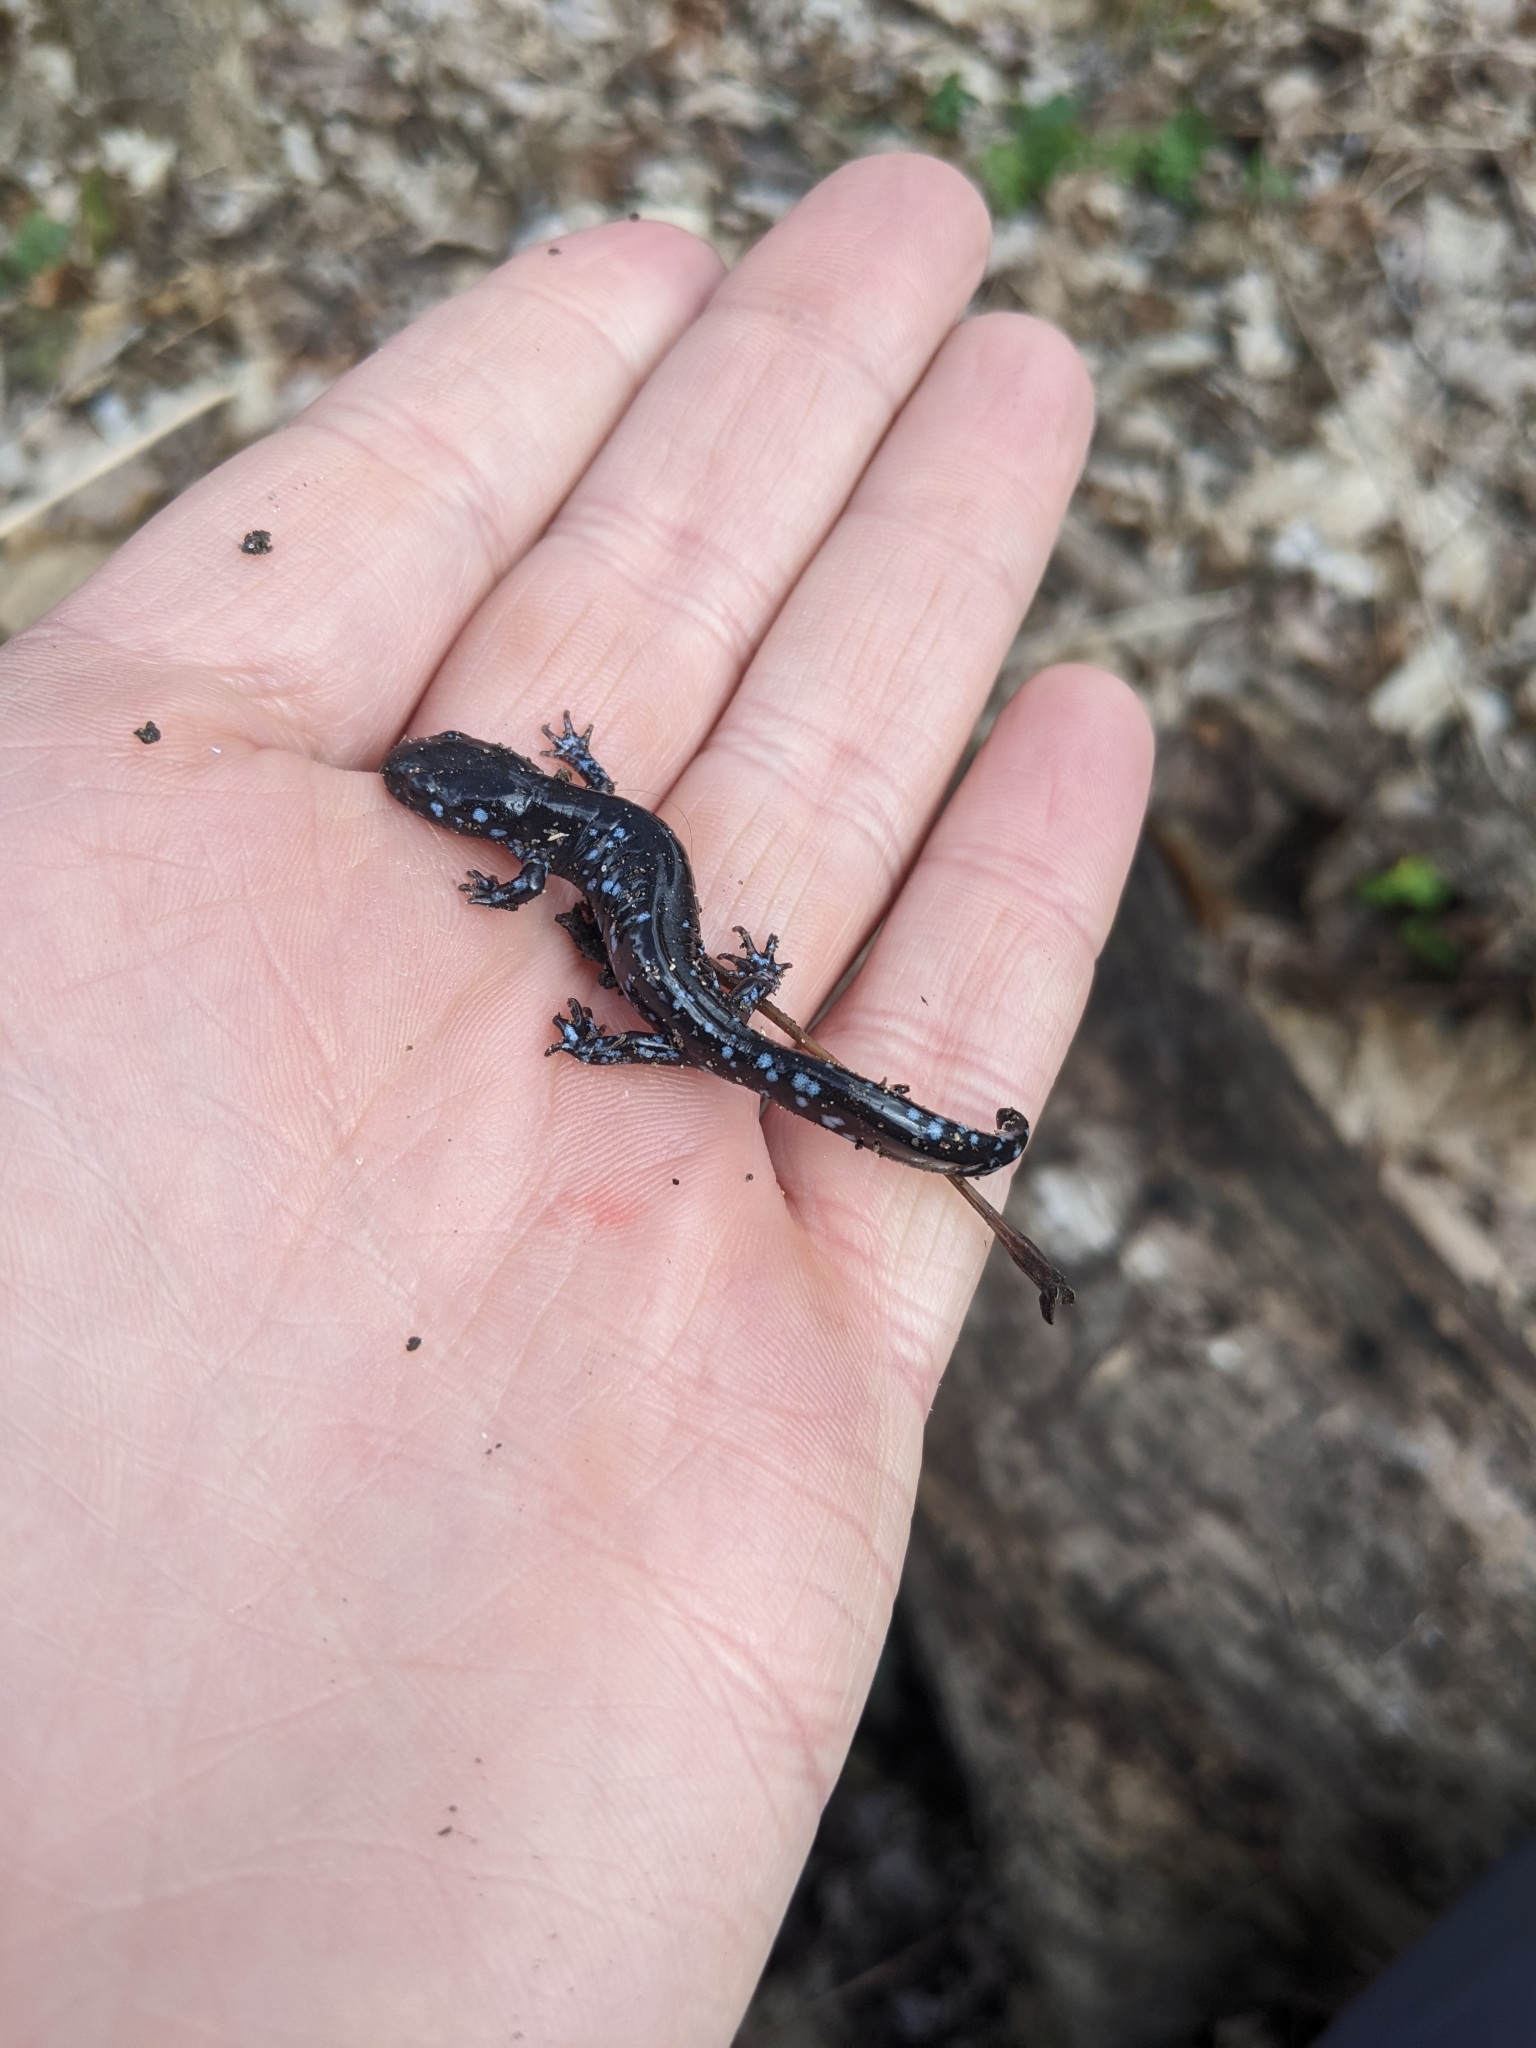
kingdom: Animalia
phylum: Chordata
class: Amphibia
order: Caudata
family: Ambystomatidae
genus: Ambystoma
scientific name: Ambystoma laterale
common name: Blue-spotted salamander
